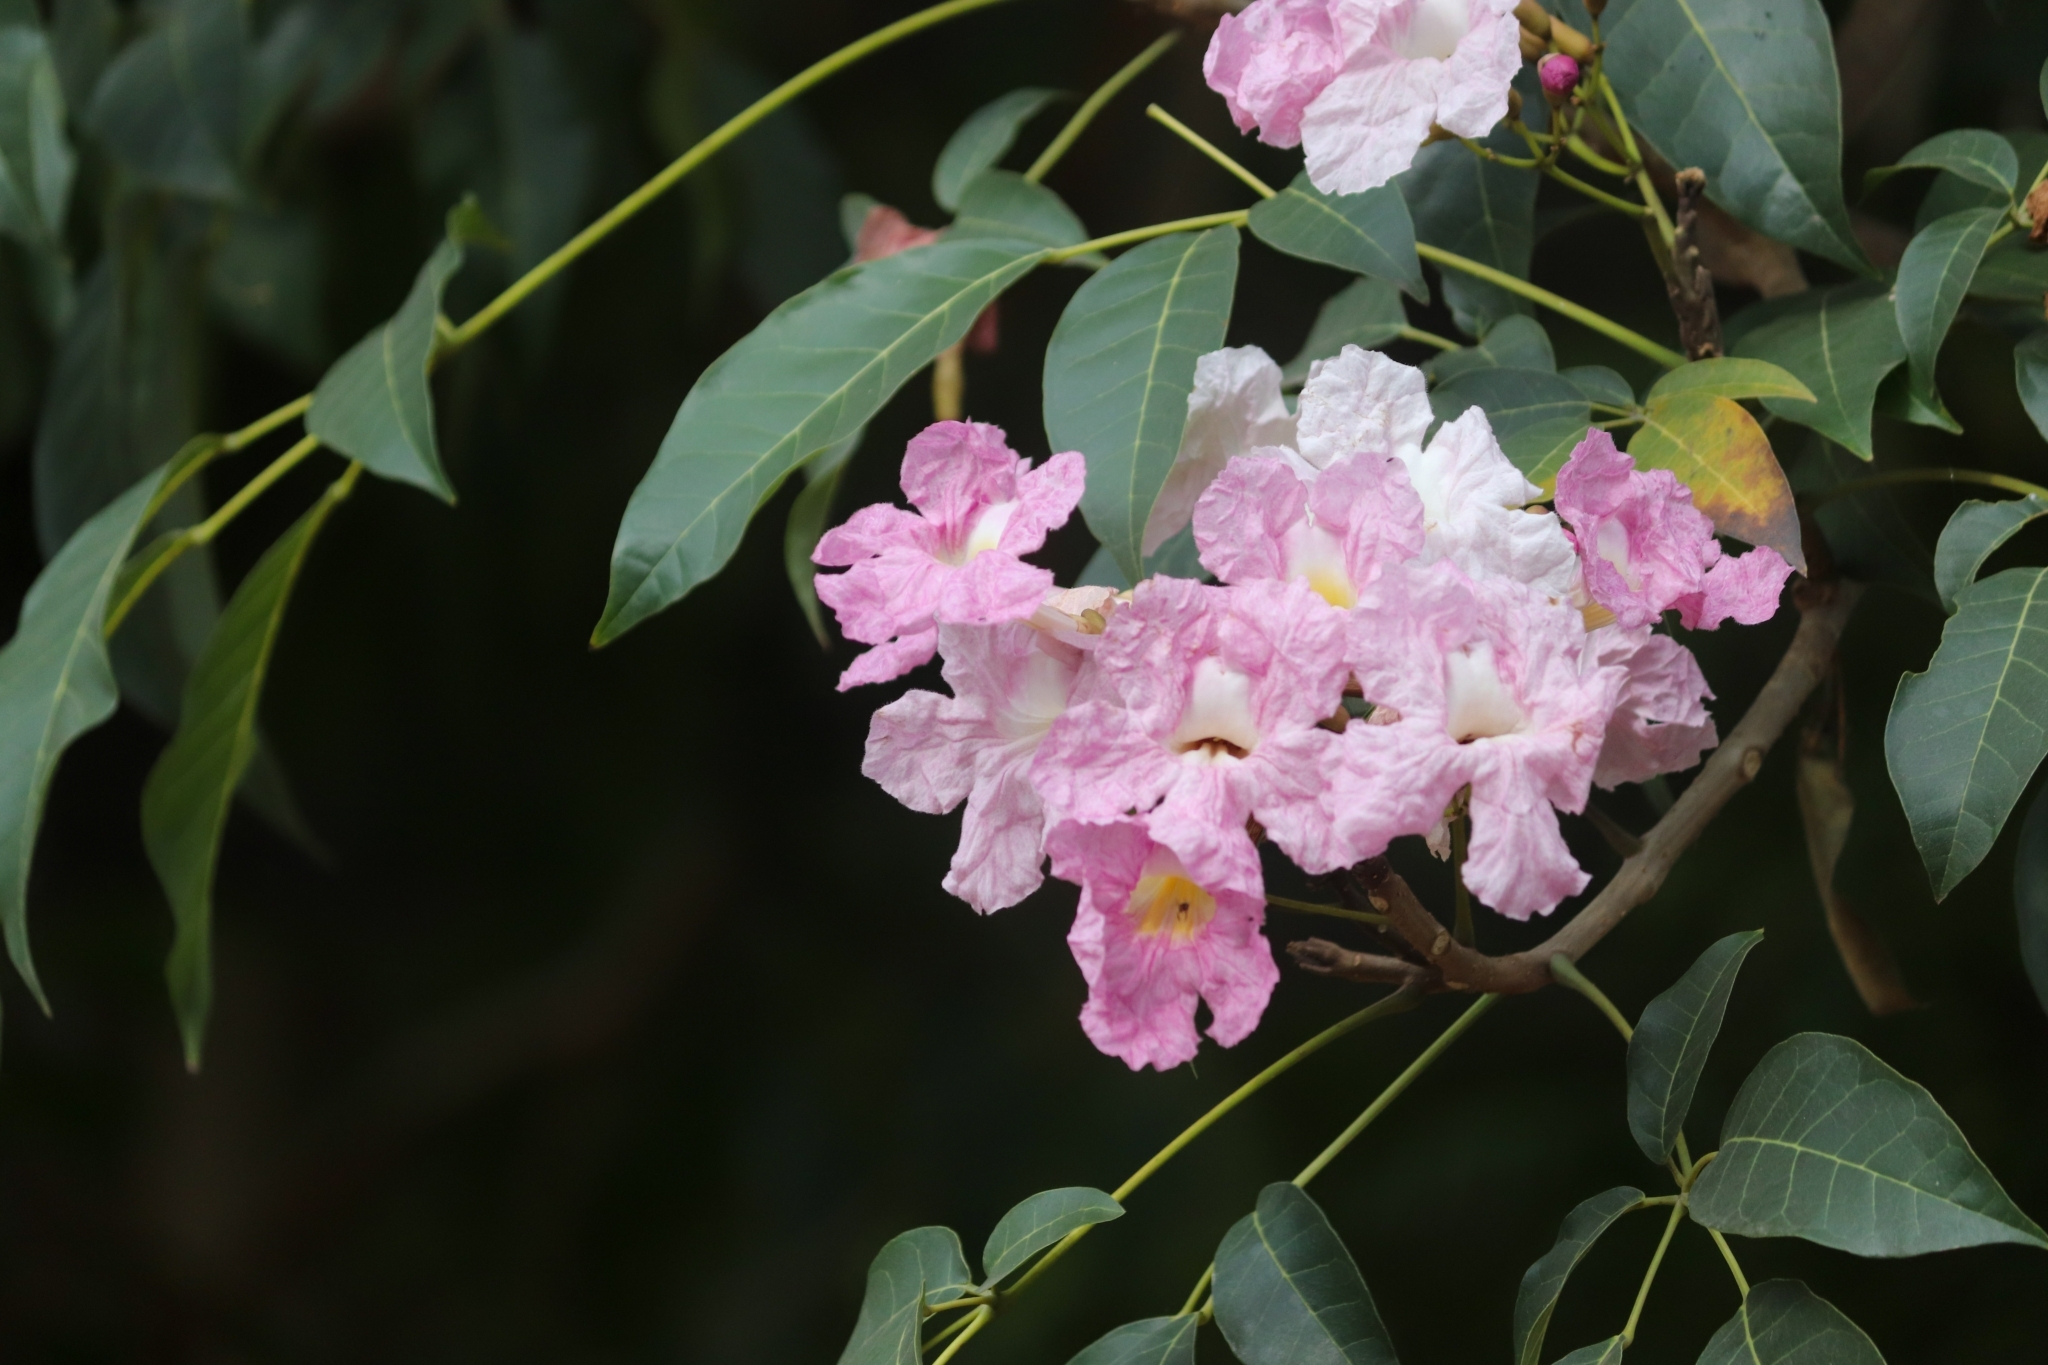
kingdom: Plantae
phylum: Tracheophyta
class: Magnoliopsida
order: Lamiales
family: Bignoniaceae
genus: Tabebuia
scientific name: Tabebuia rosea
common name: Pink poui
